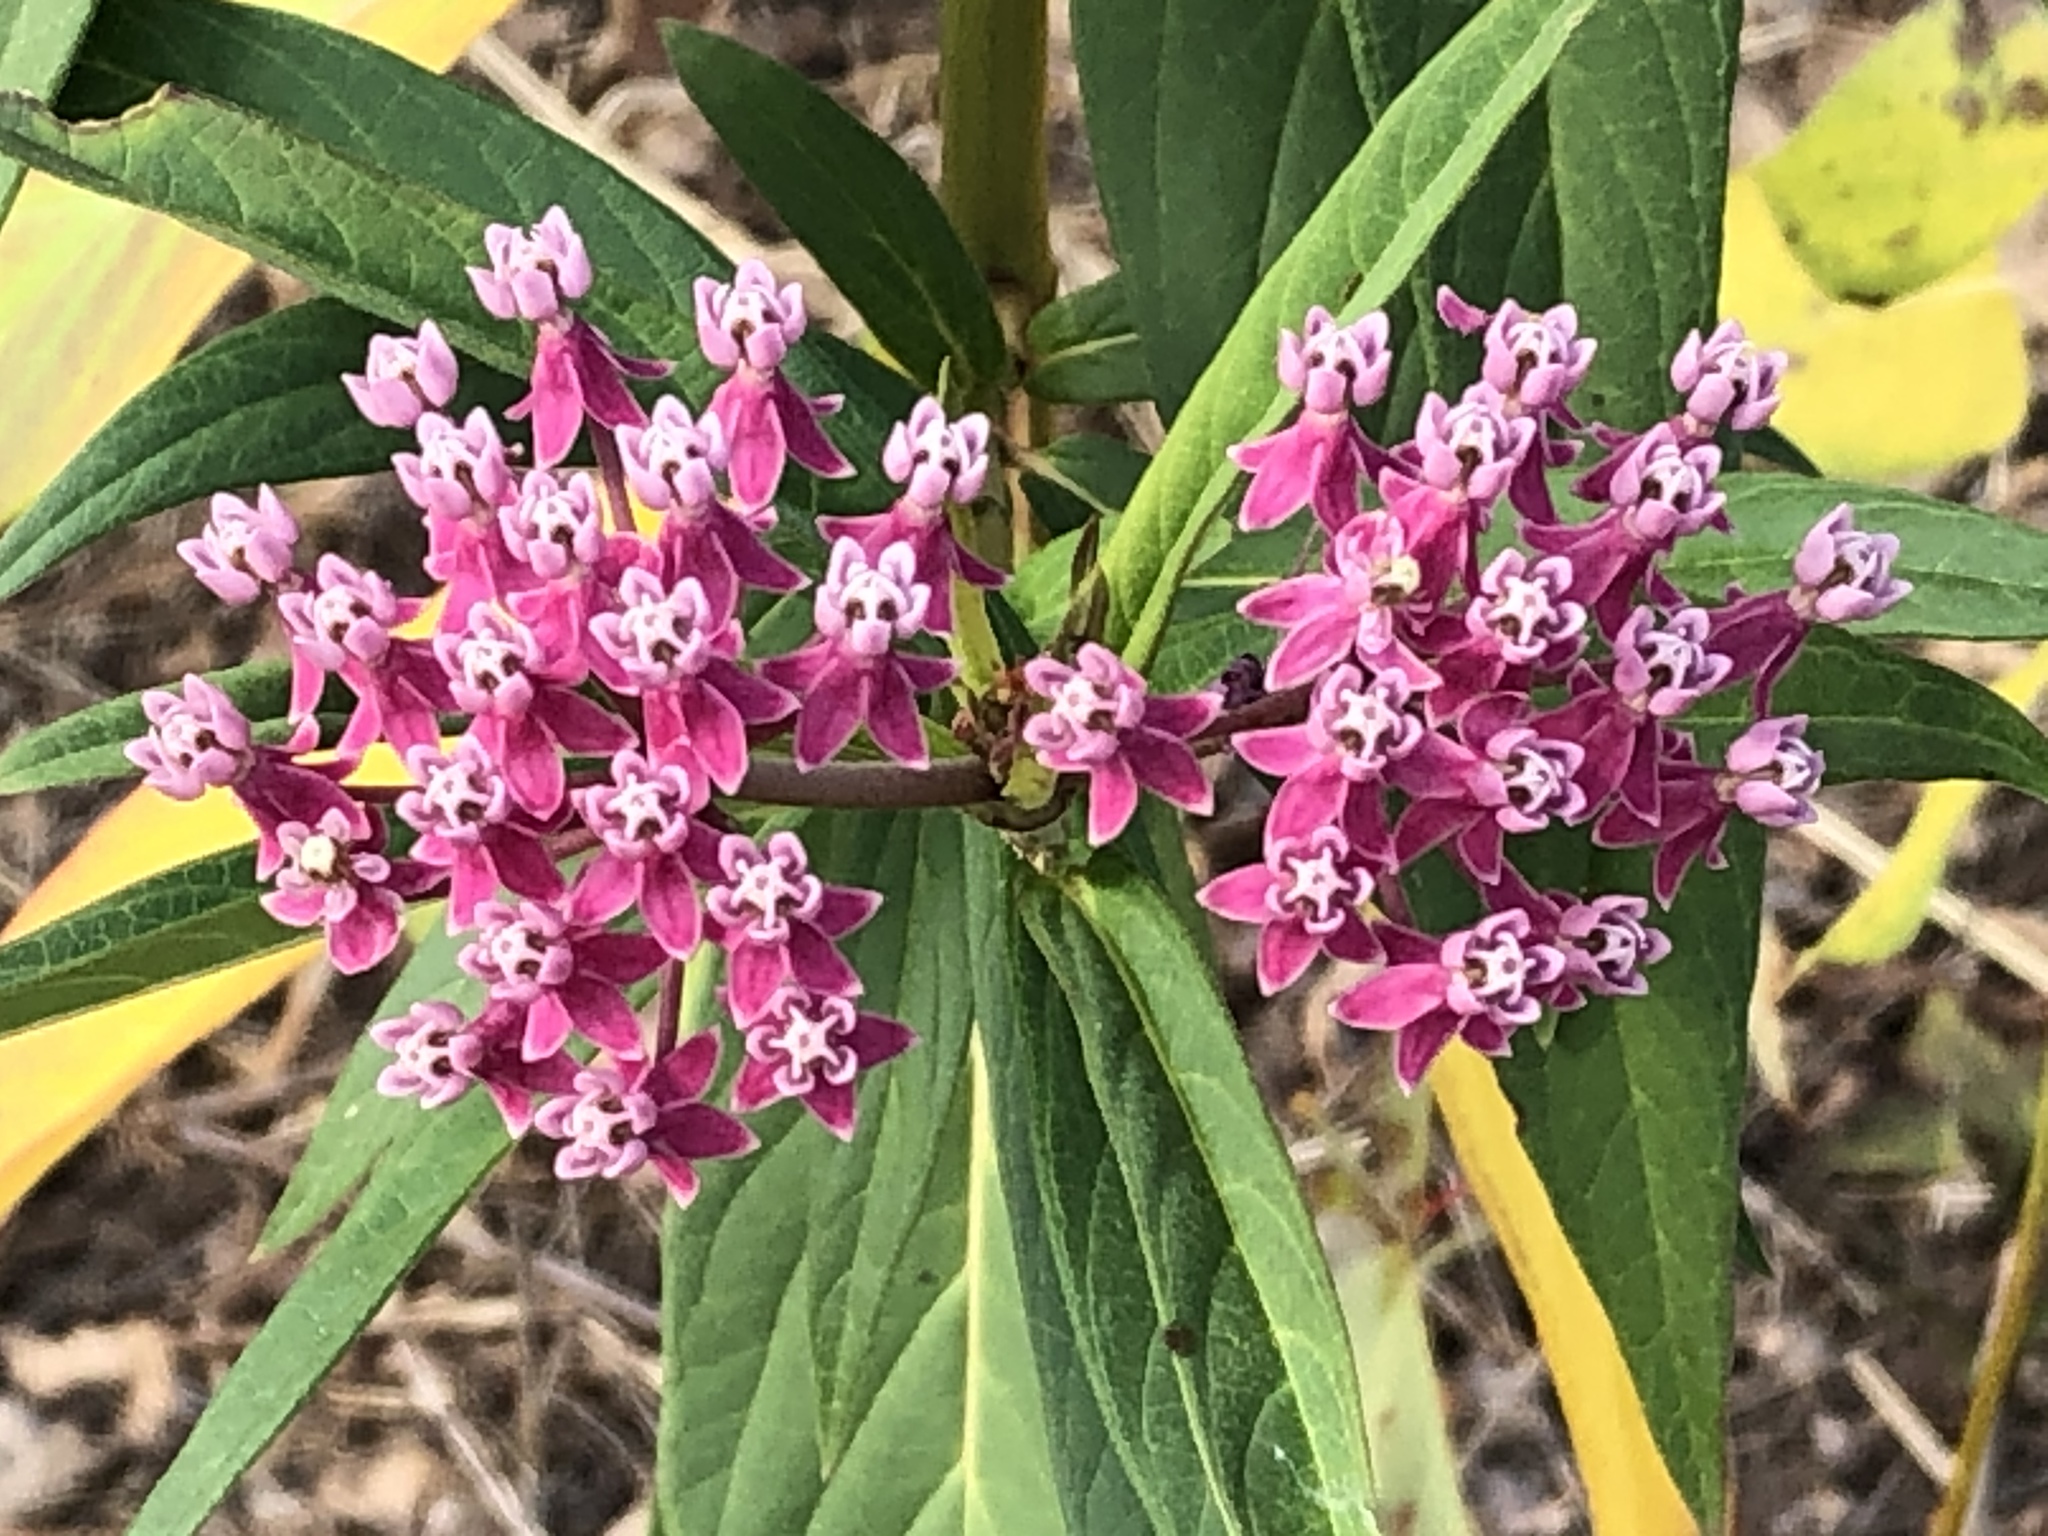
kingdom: Plantae
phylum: Tracheophyta
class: Magnoliopsida
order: Gentianales
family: Apocynaceae
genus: Asclepias
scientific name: Asclepias incarnata
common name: Swamp milkweed
